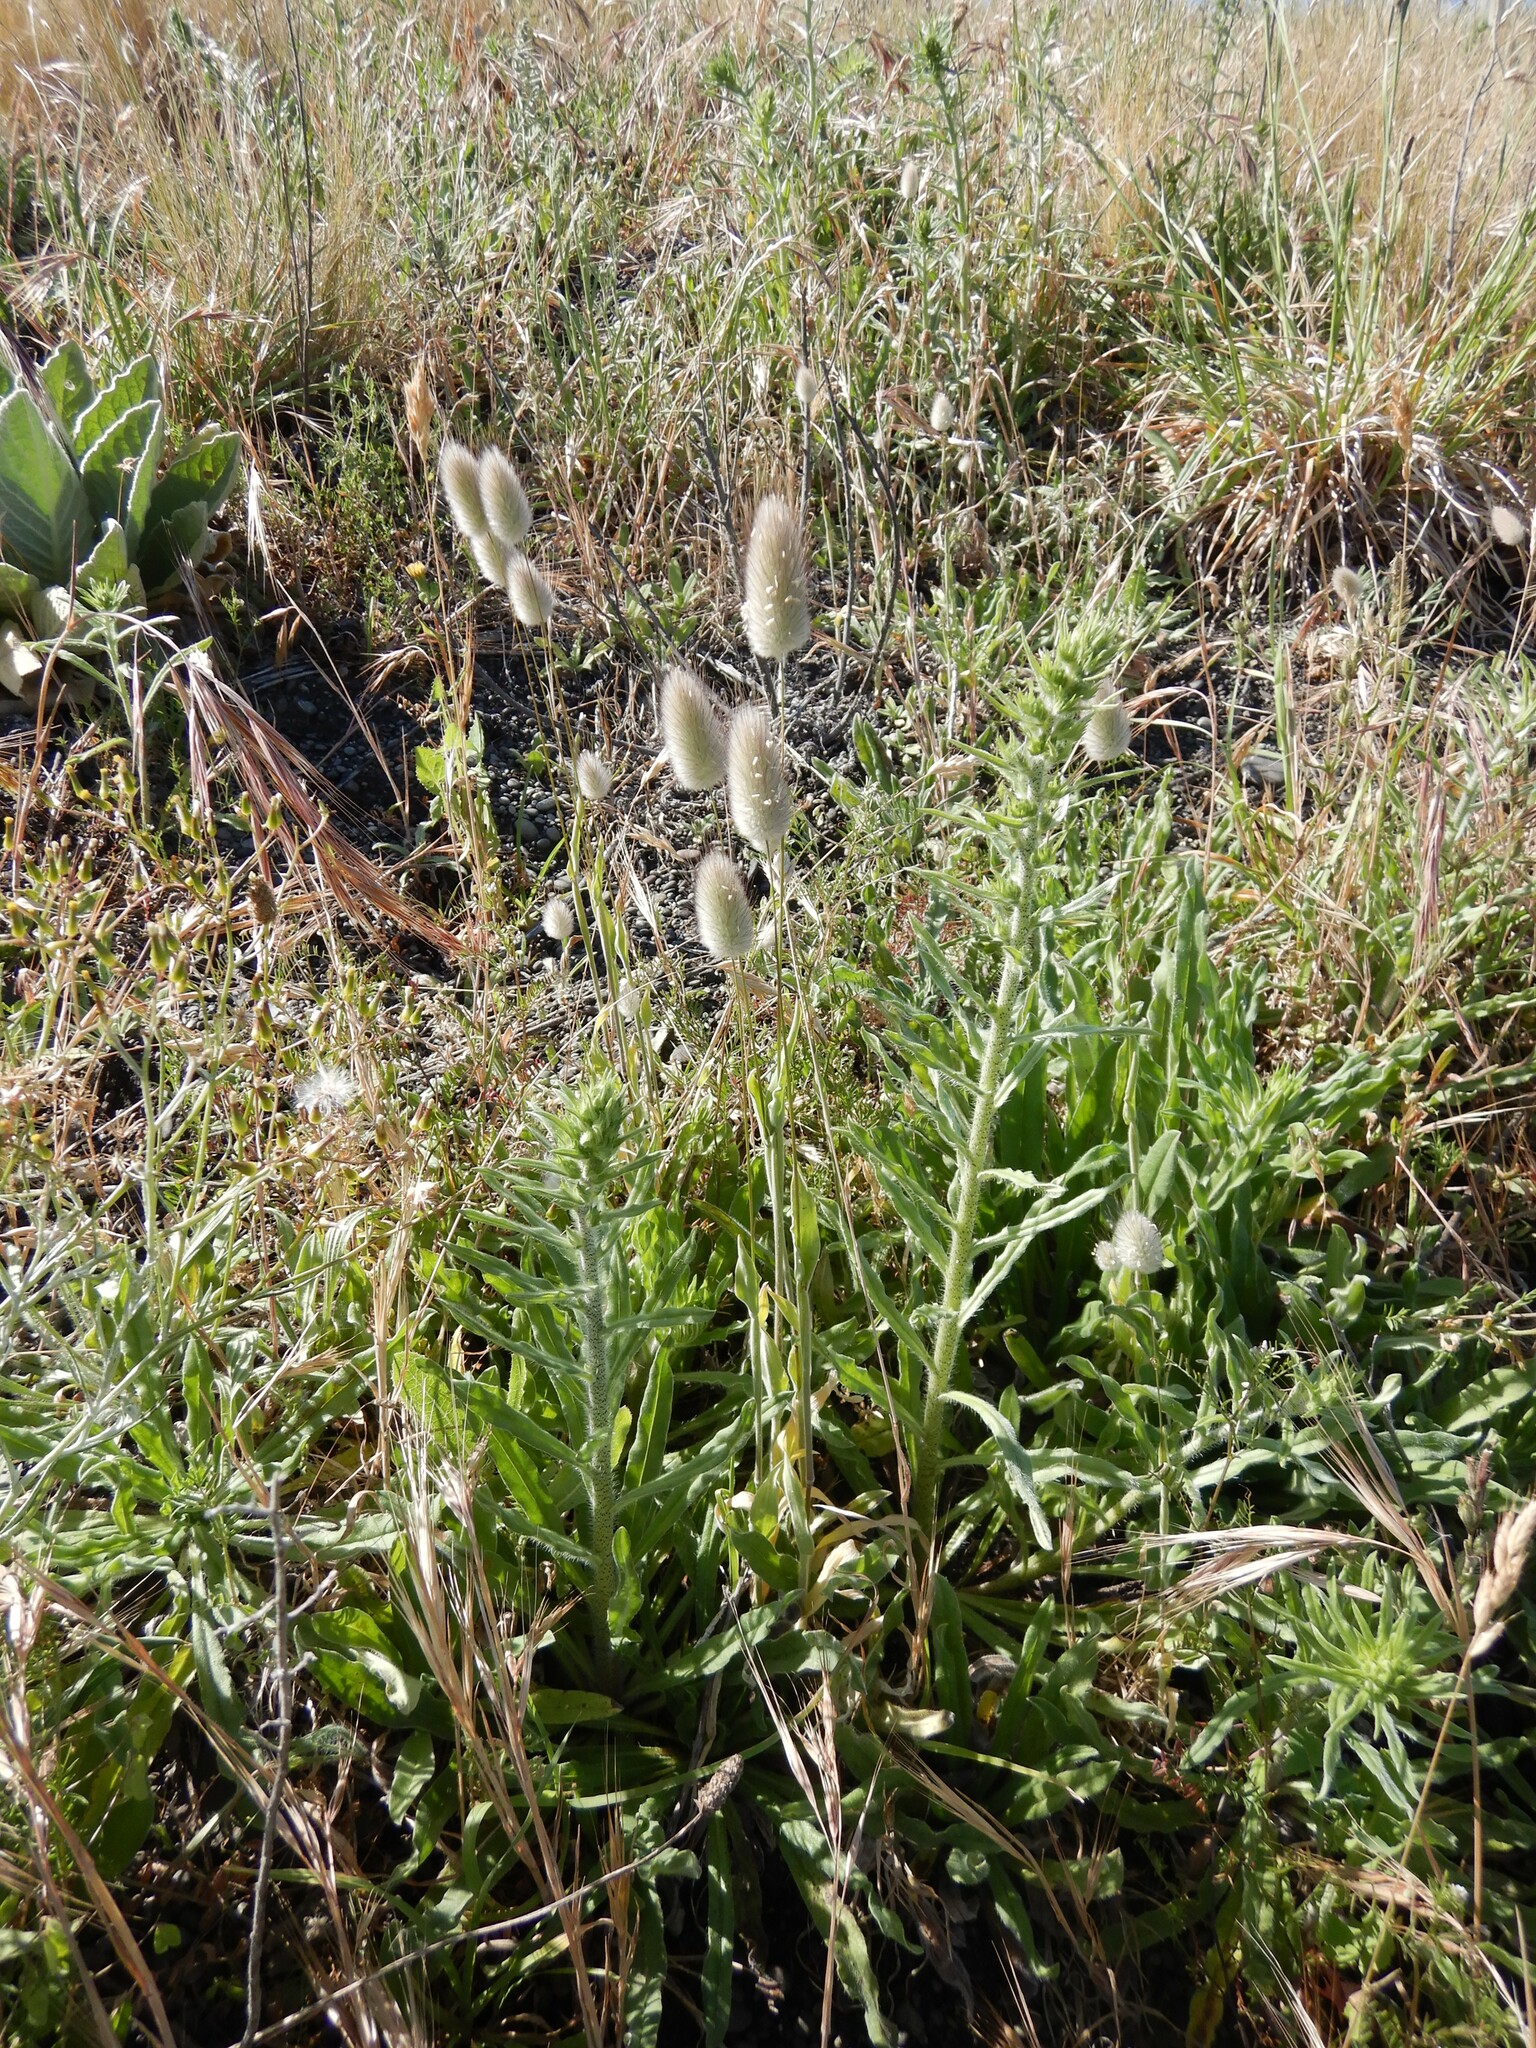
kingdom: Plantae
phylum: Tracheophyta
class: Liliopsida
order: Poales
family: Poaceae
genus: Lagurus
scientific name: Lagurus ovatus
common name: Hare's-tail
